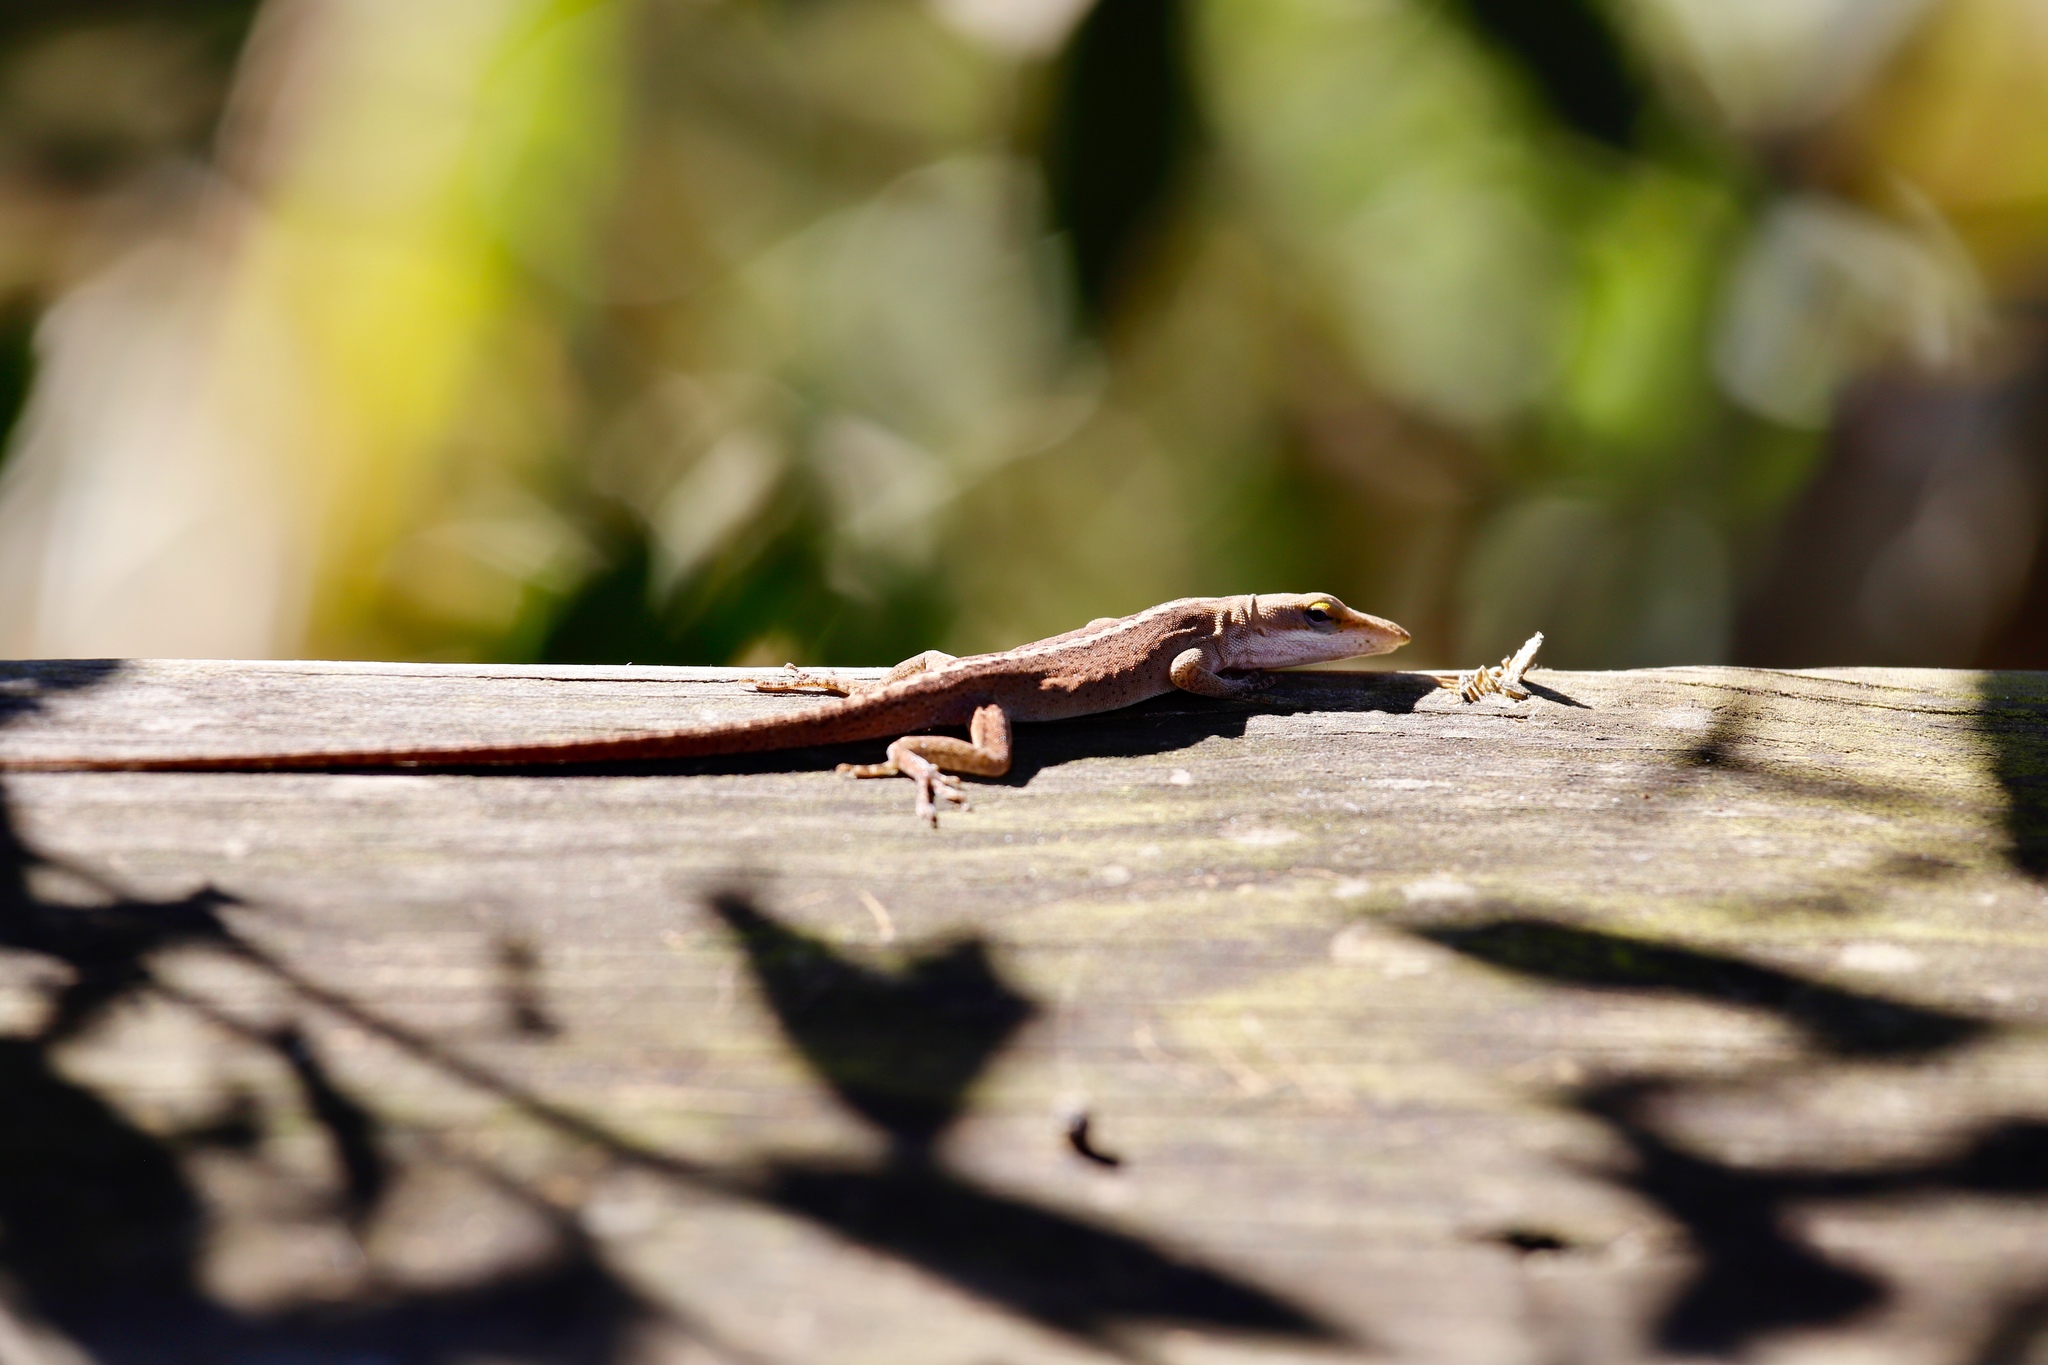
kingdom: Animalia
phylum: Chordata
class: Squamata
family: Dactyloidae
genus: Anolis
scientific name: Anolis carolinensis
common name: Green anole
